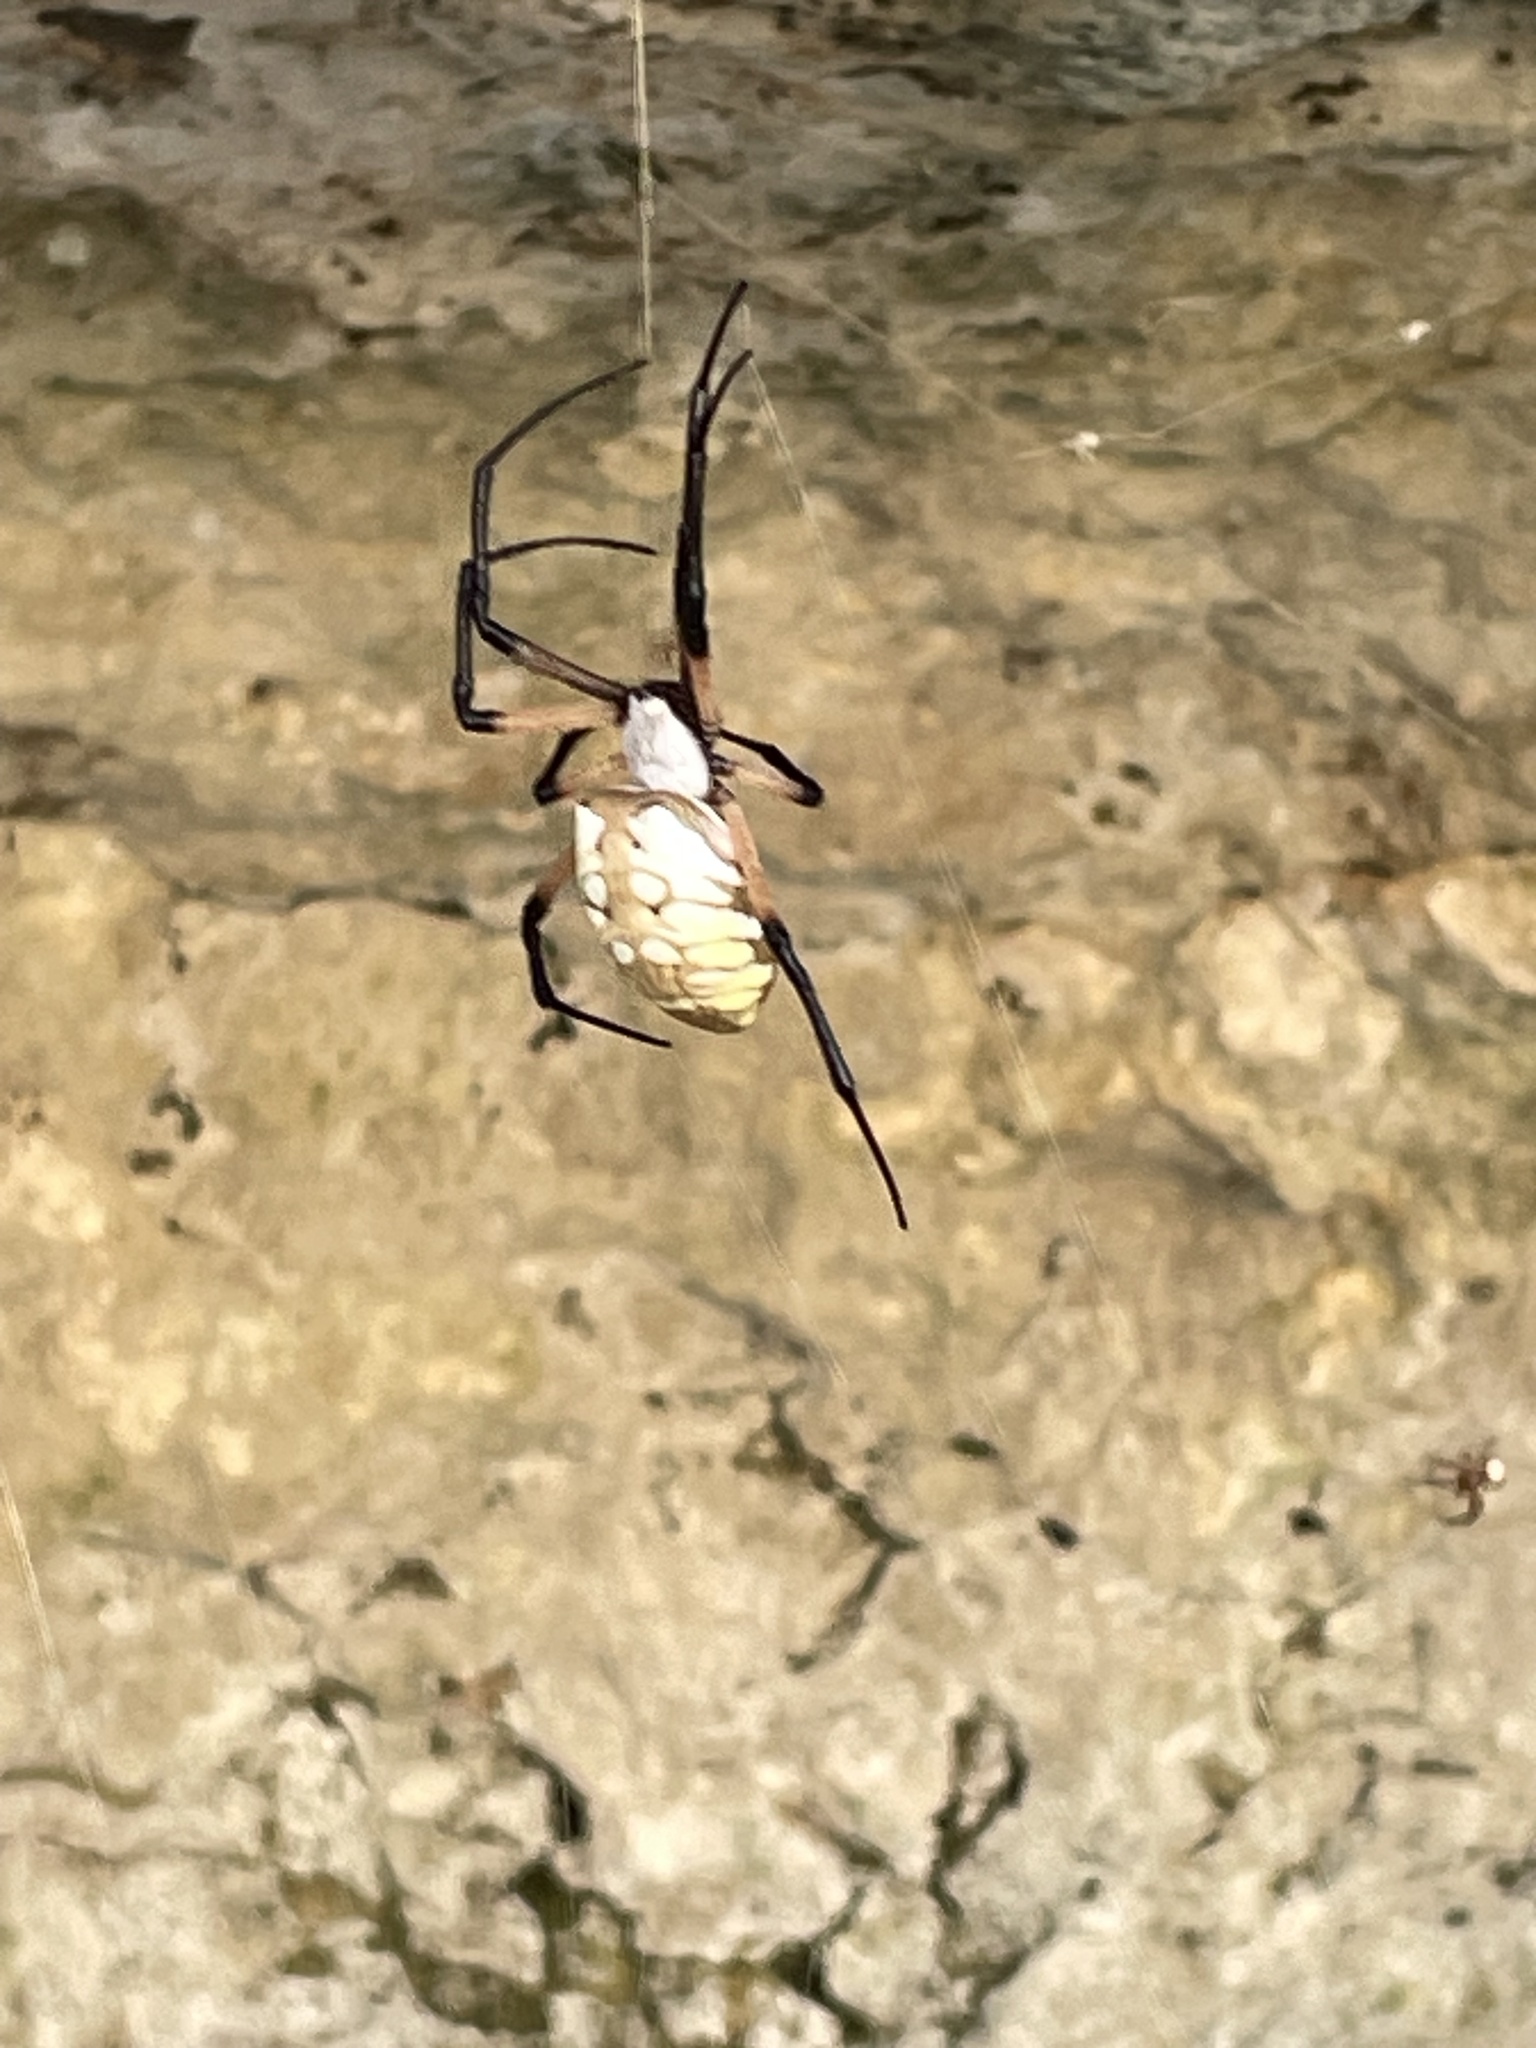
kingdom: Animalia
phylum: Arthropoda
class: Arachnida
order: Araneae
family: Araneidae
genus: Argiope
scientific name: Argiope aurantia
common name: Orb weavers
